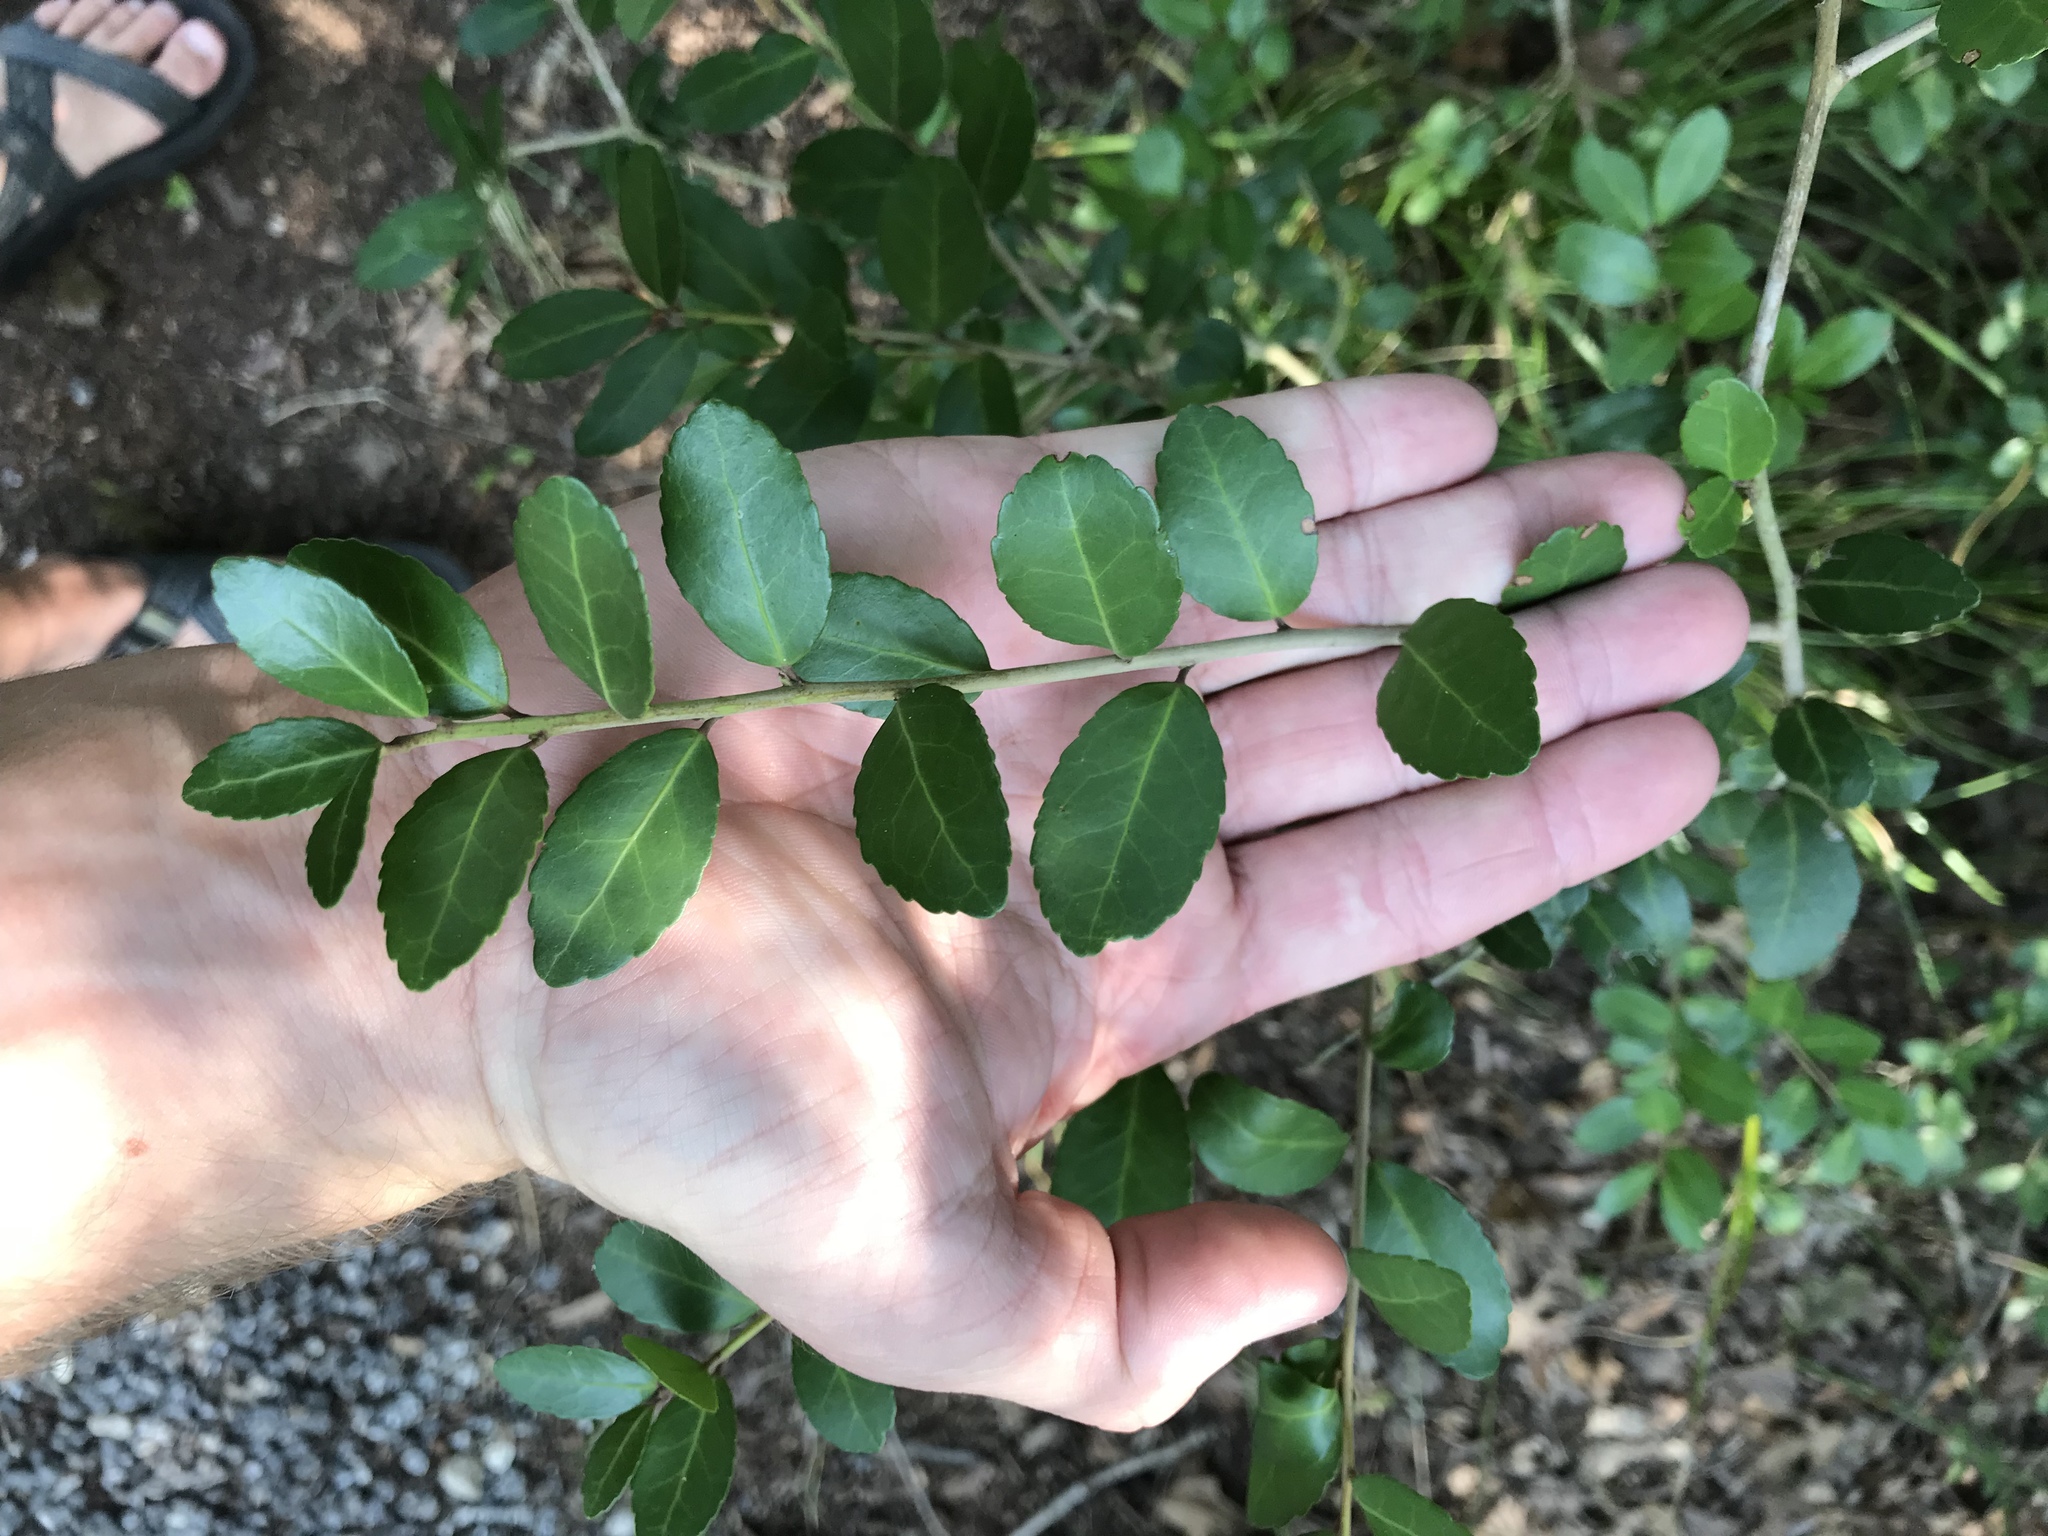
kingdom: Plantae
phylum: Tracheophyta
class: Magnoliopsida
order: Aquifoliales
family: Aquifoliaceae
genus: Ilex
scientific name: Ilex vomitoria
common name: Yaupon holly
